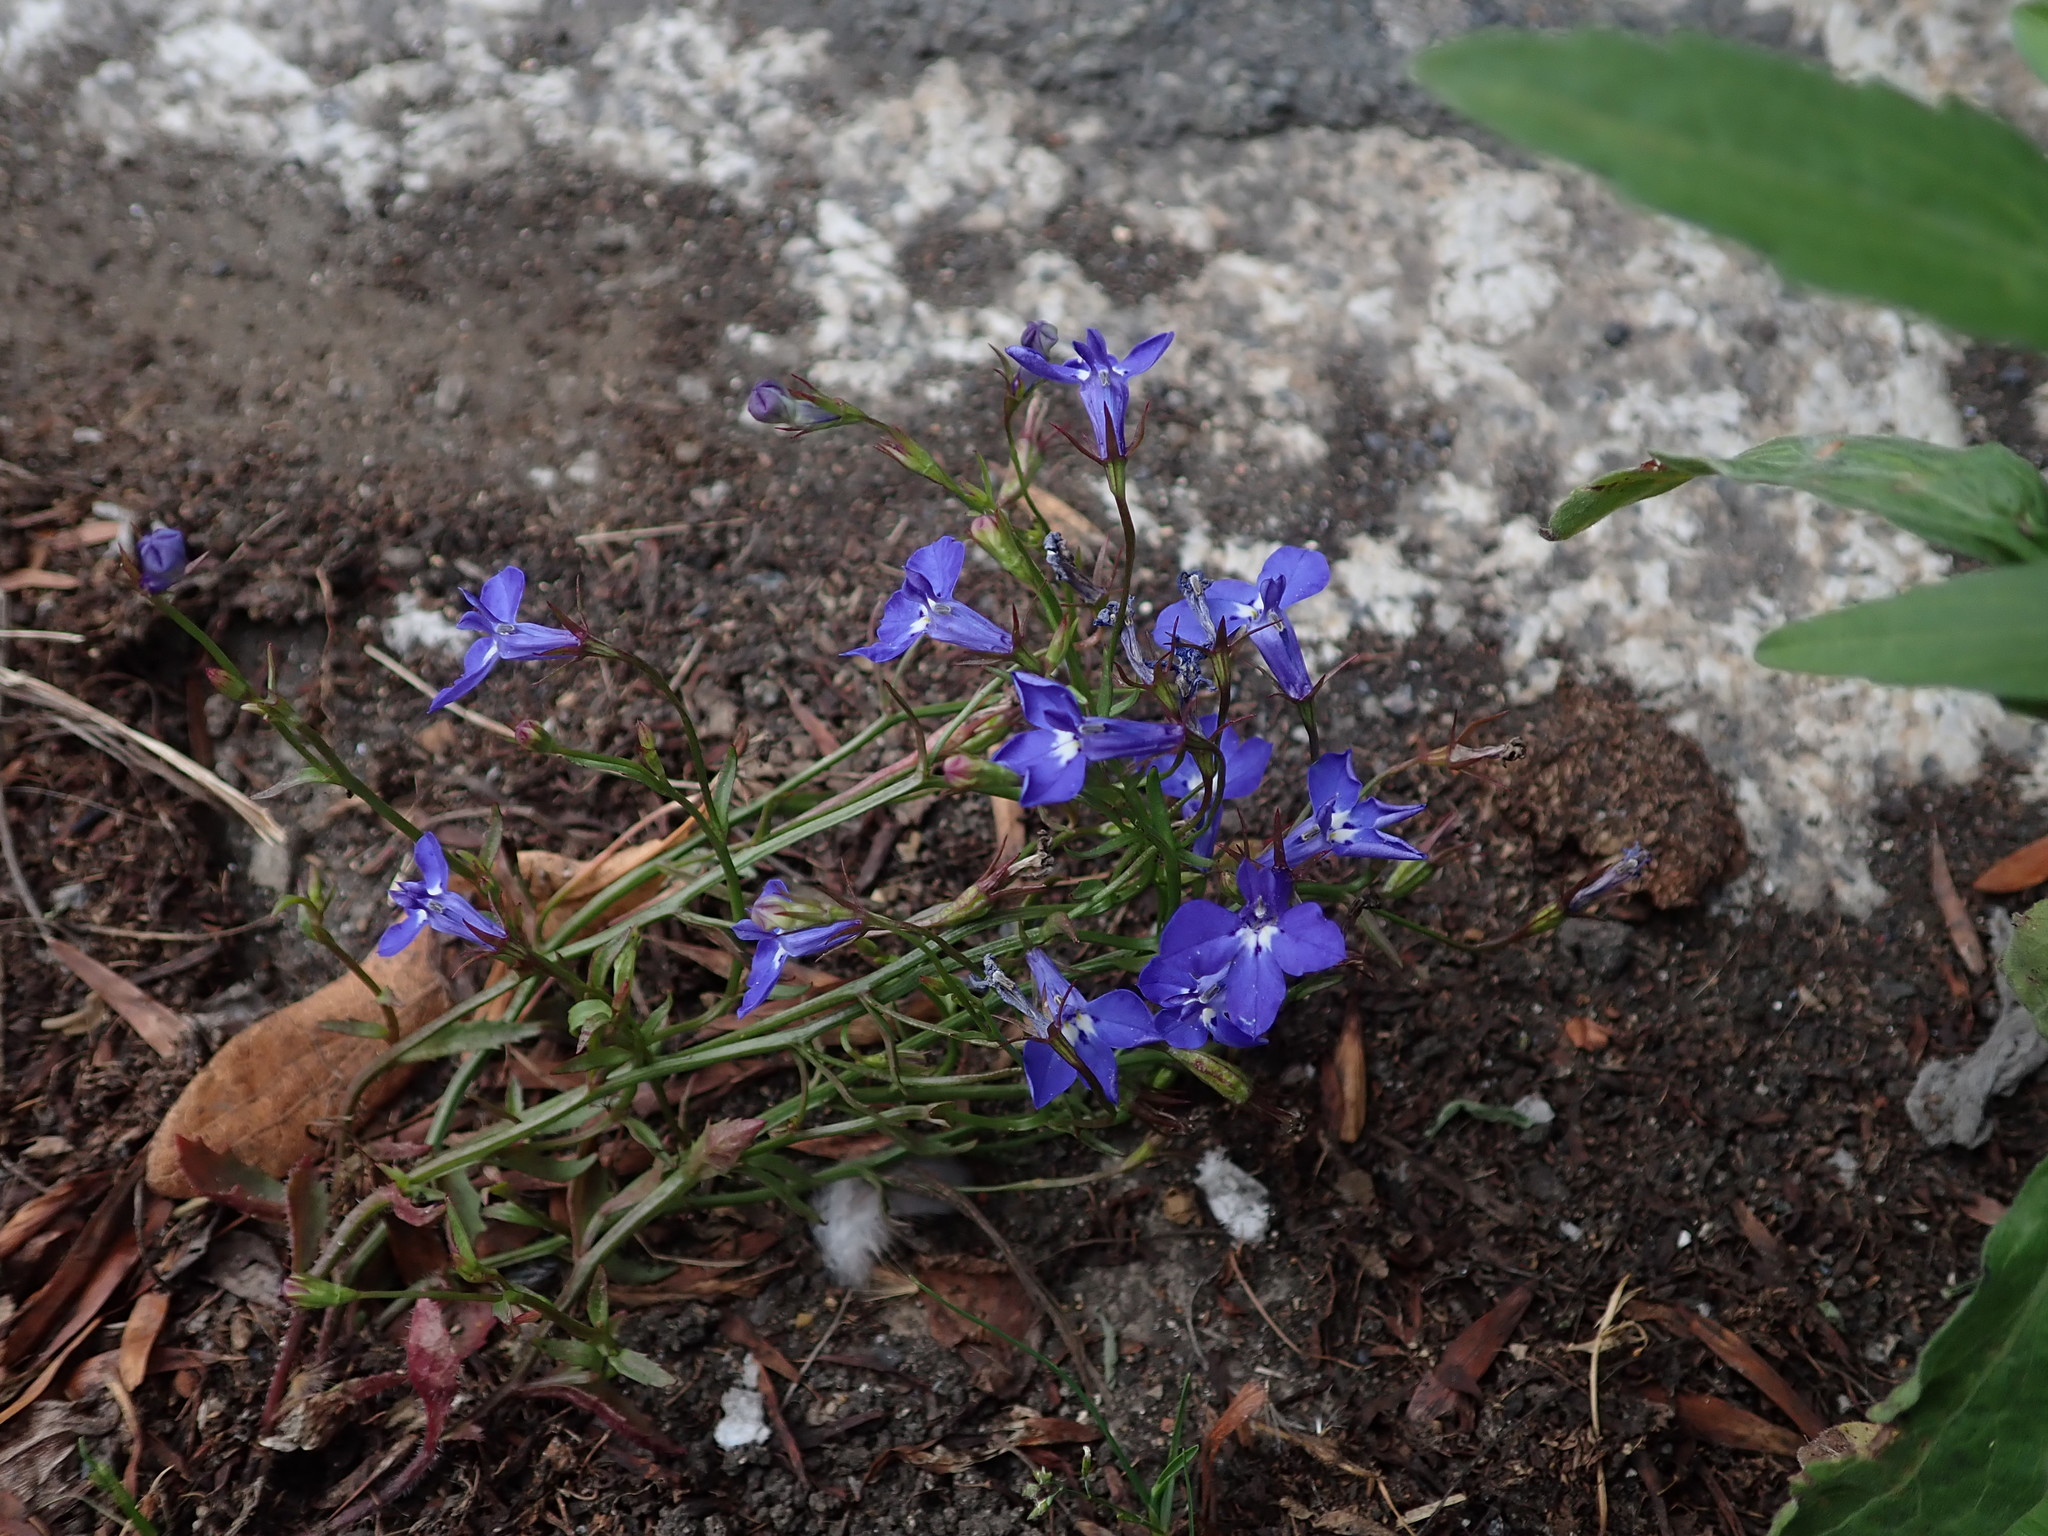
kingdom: Plantae
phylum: Tracheophyta
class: Magnoliopsida
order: Asterales
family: Campanulaceae
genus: Lobelia
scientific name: Lobelia erinus
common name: Edging lobelia
